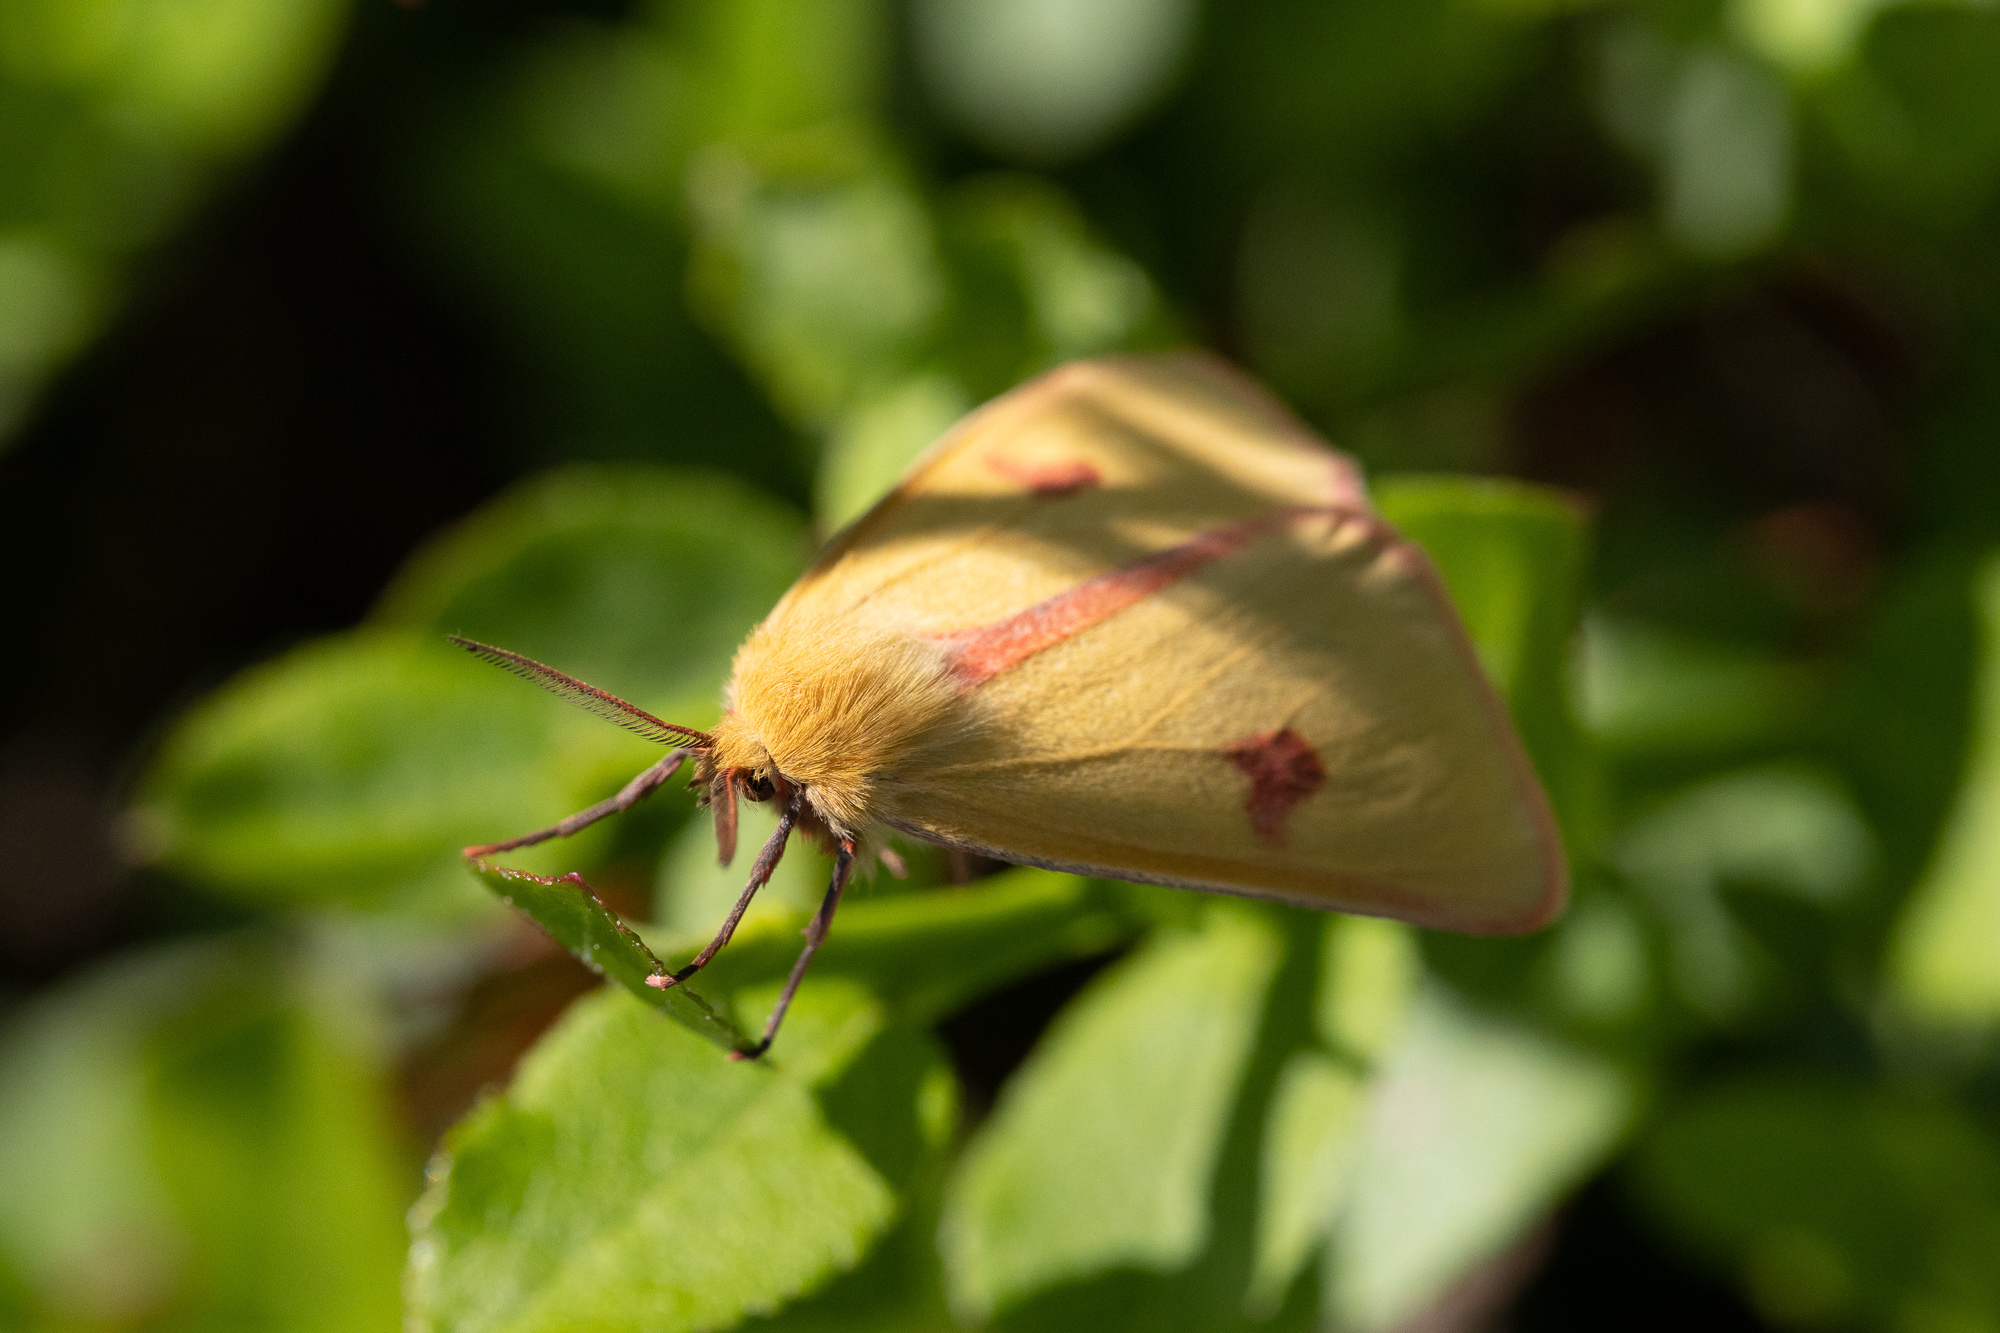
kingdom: Animalia
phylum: Arthropoda
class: Insecta
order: Lepidoptera
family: Erebidae
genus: Diacrisia
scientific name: Diacrisia sannio
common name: Clouded buff
